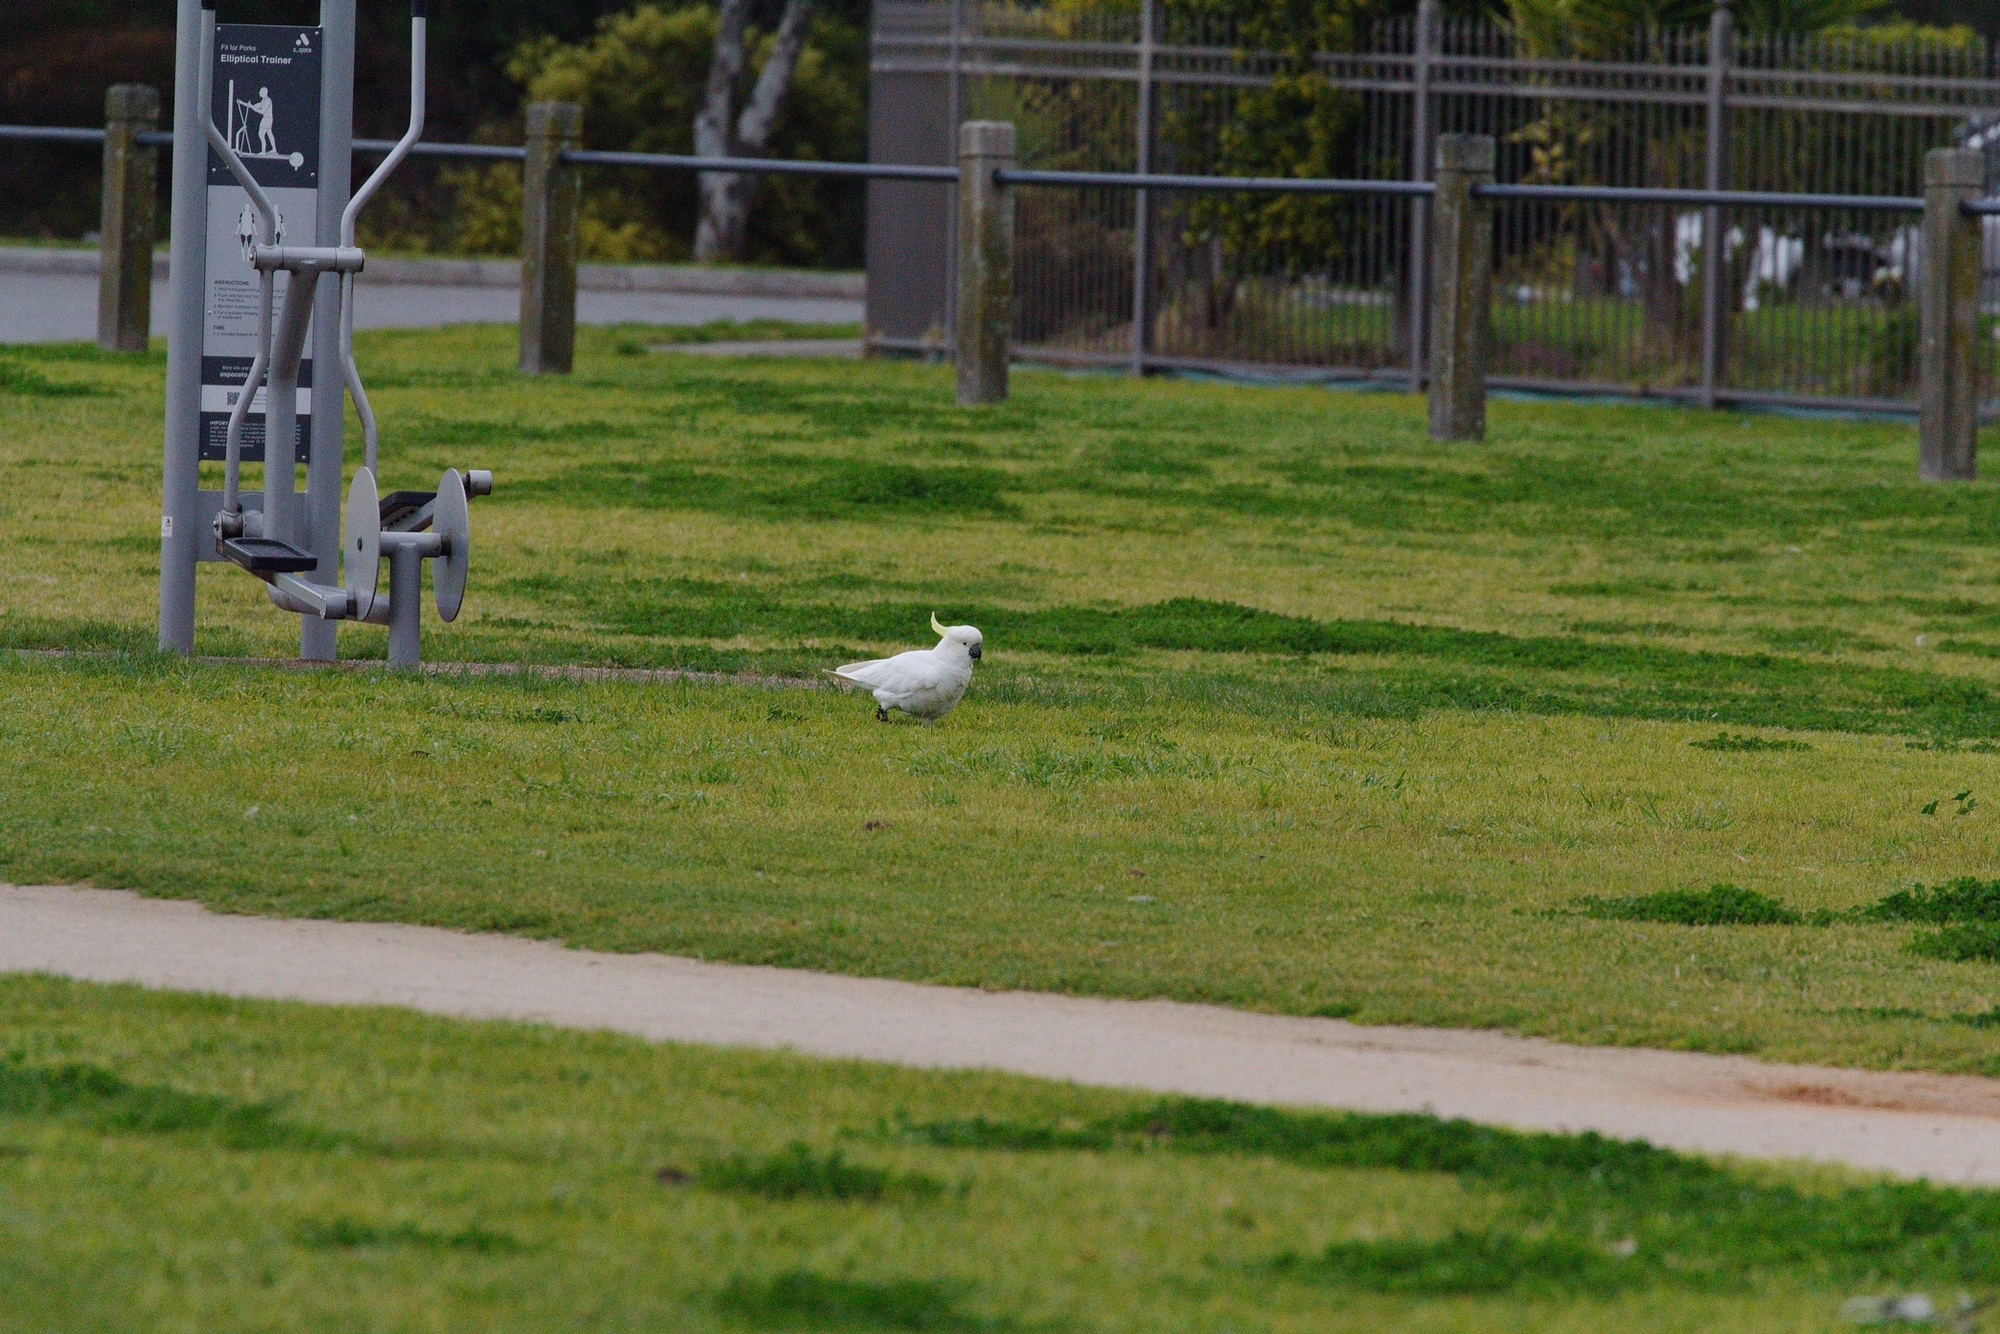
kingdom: Animalia
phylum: Chordata
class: Aves
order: Psittaciformes
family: Psittacidae
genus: Cacatua
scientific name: Cacatua galerita
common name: Sulphur-crested cockatoo
